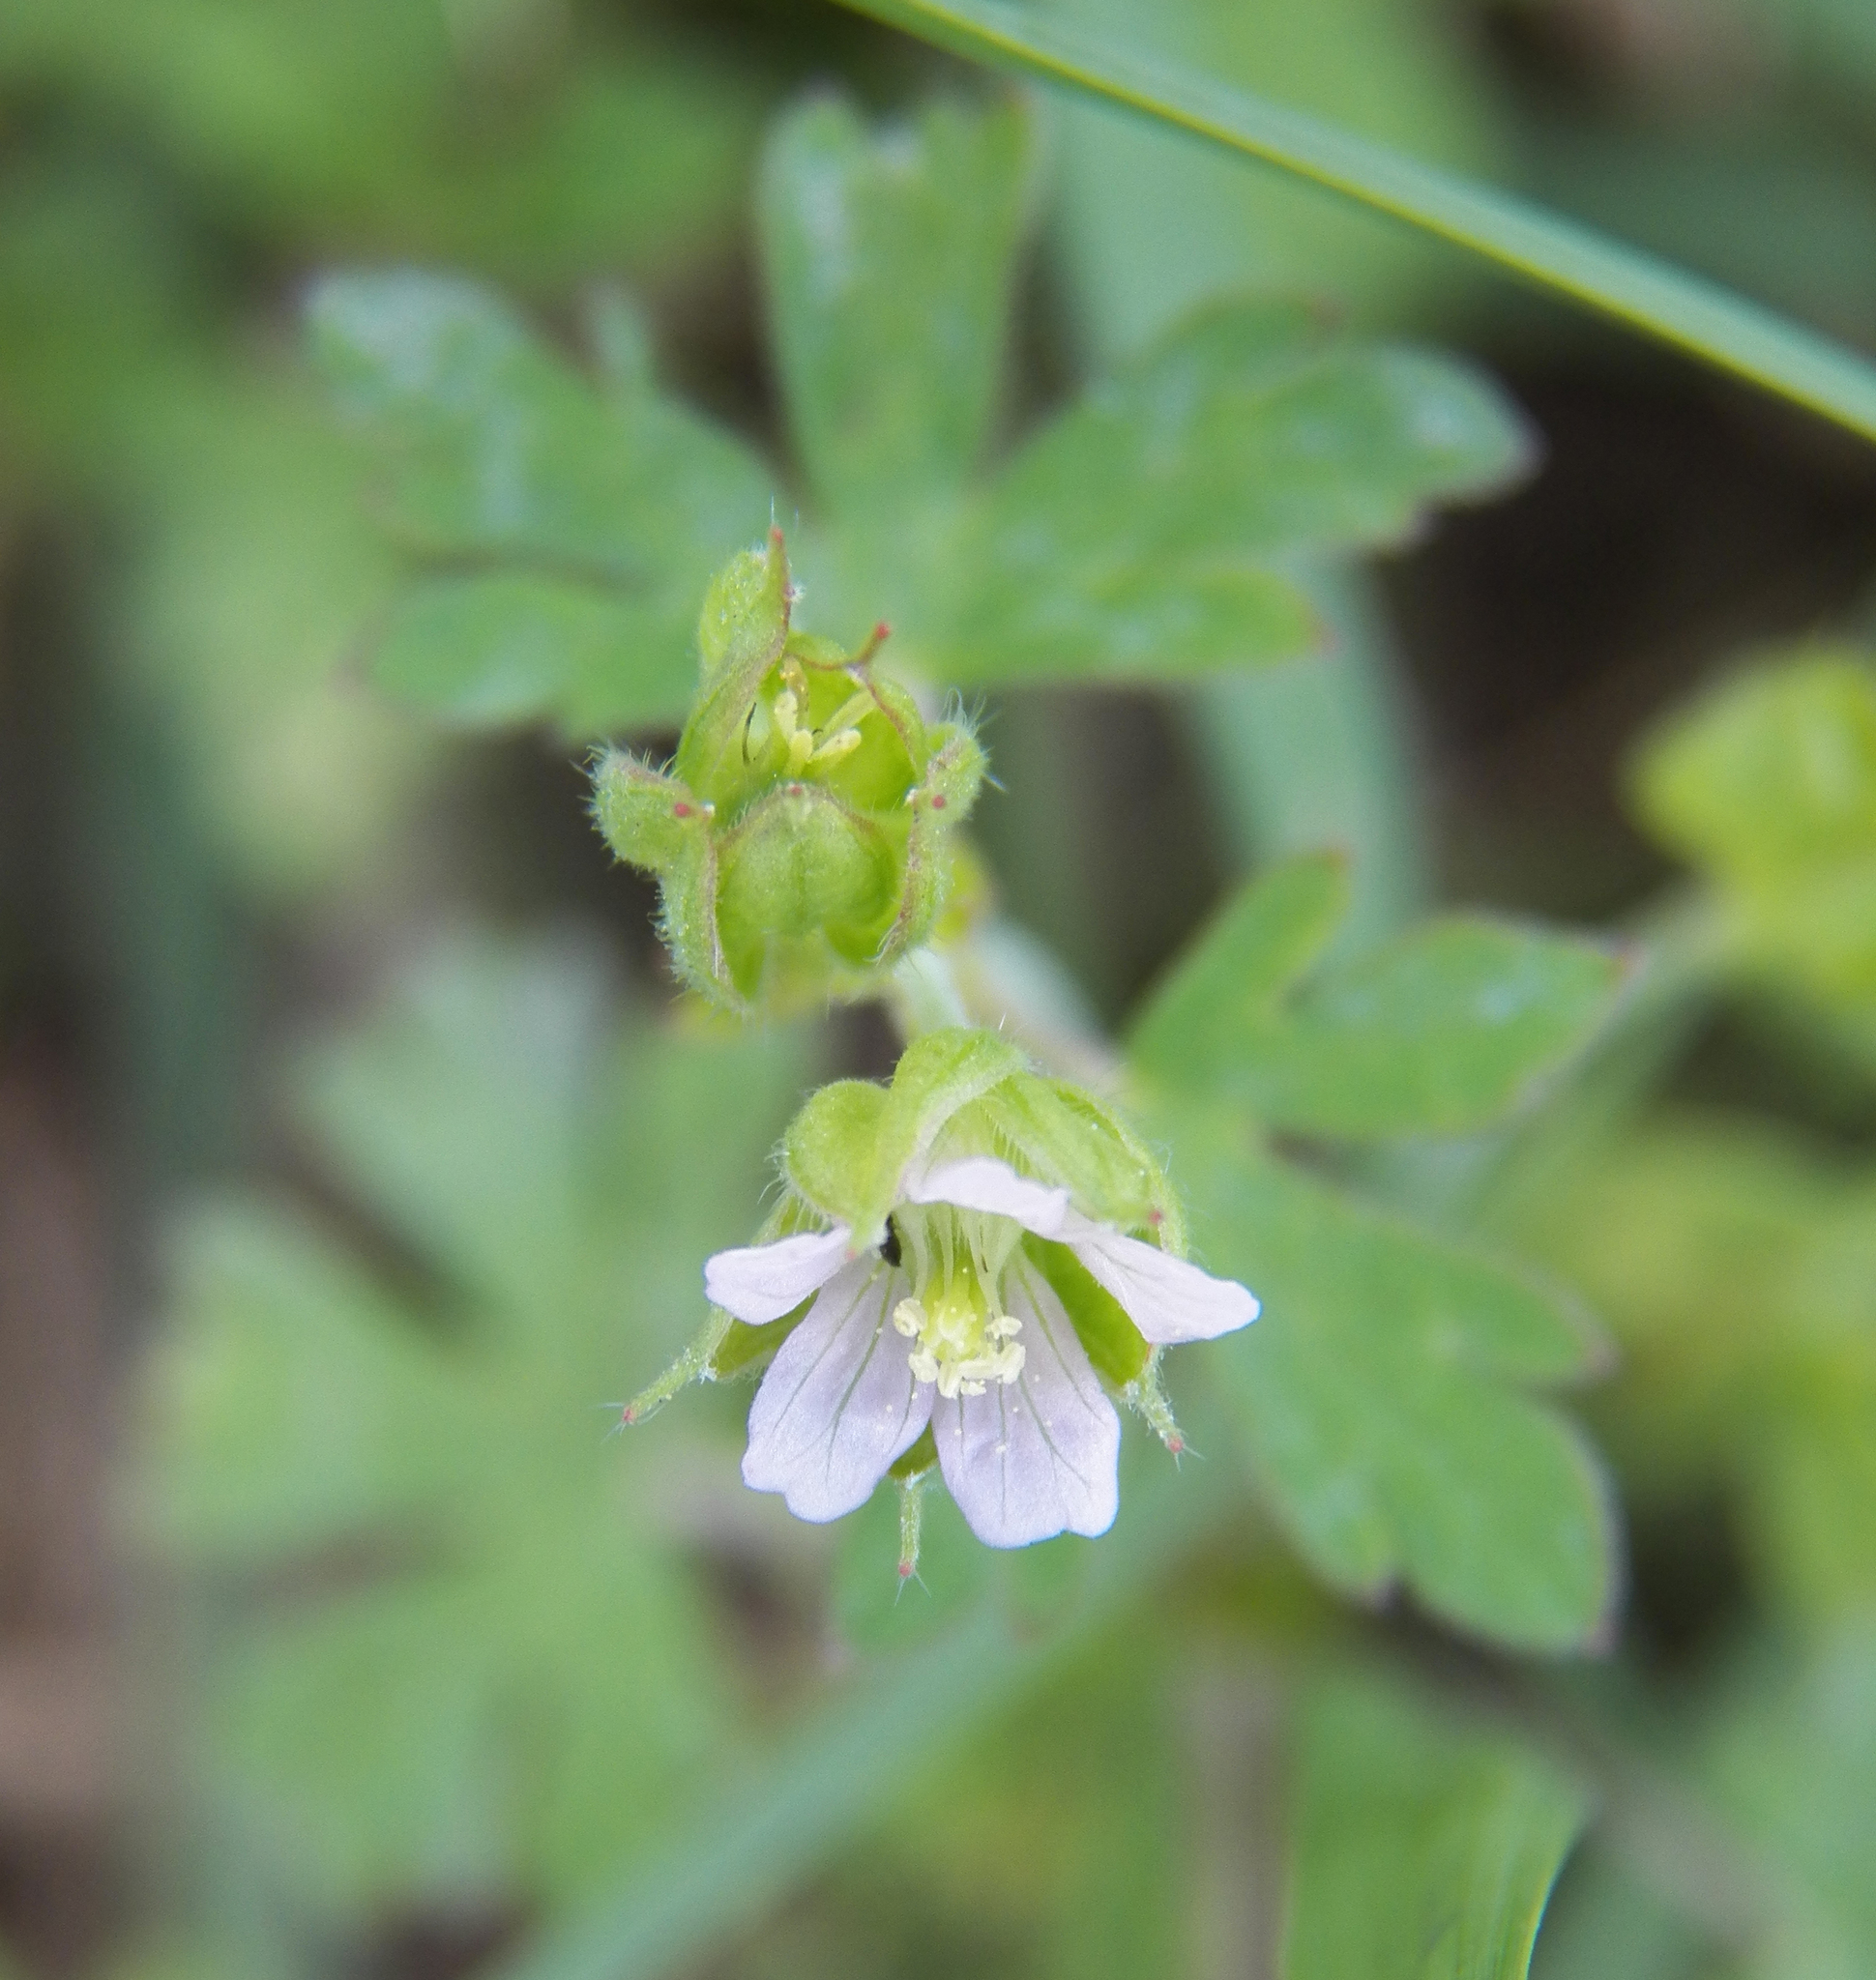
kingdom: Plantae
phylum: Tracheophyta
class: Magnoliopsida
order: Geraniales
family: Geraniaceae
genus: Geranium
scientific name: Geranium carolinianum
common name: Carolina crane's-bill
